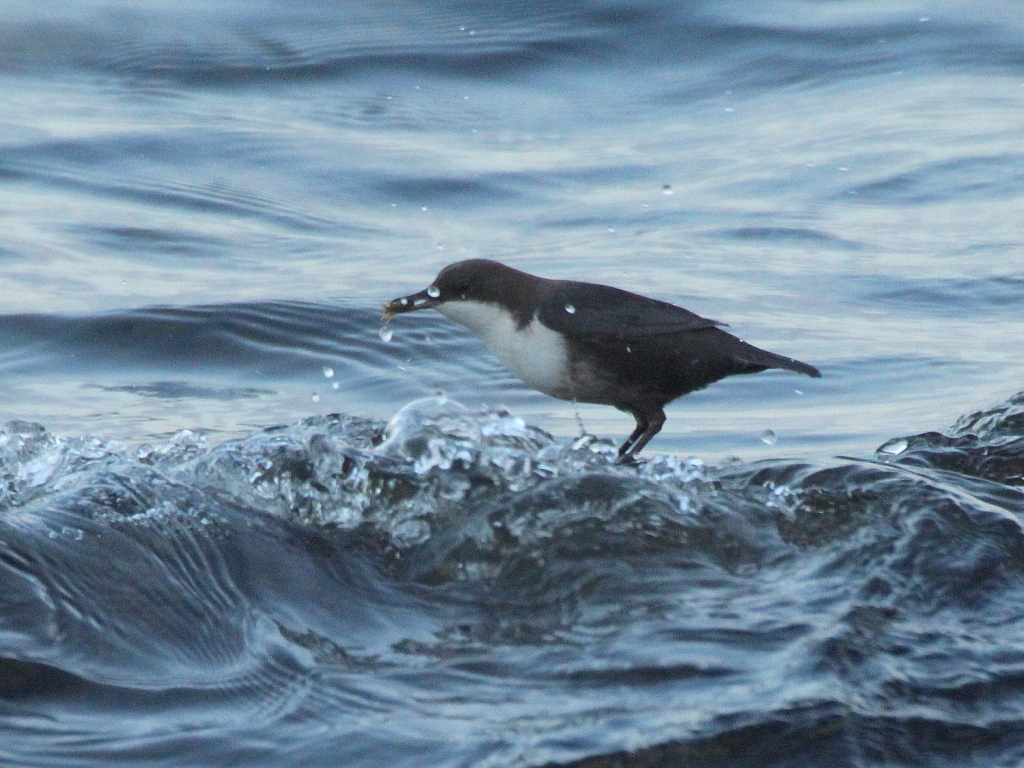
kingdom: Animalia
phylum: Chordata
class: Aves
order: Passeriformes
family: Cinclidae
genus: Cinclus
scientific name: Cinclus cinclus
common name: White-throated dipper
